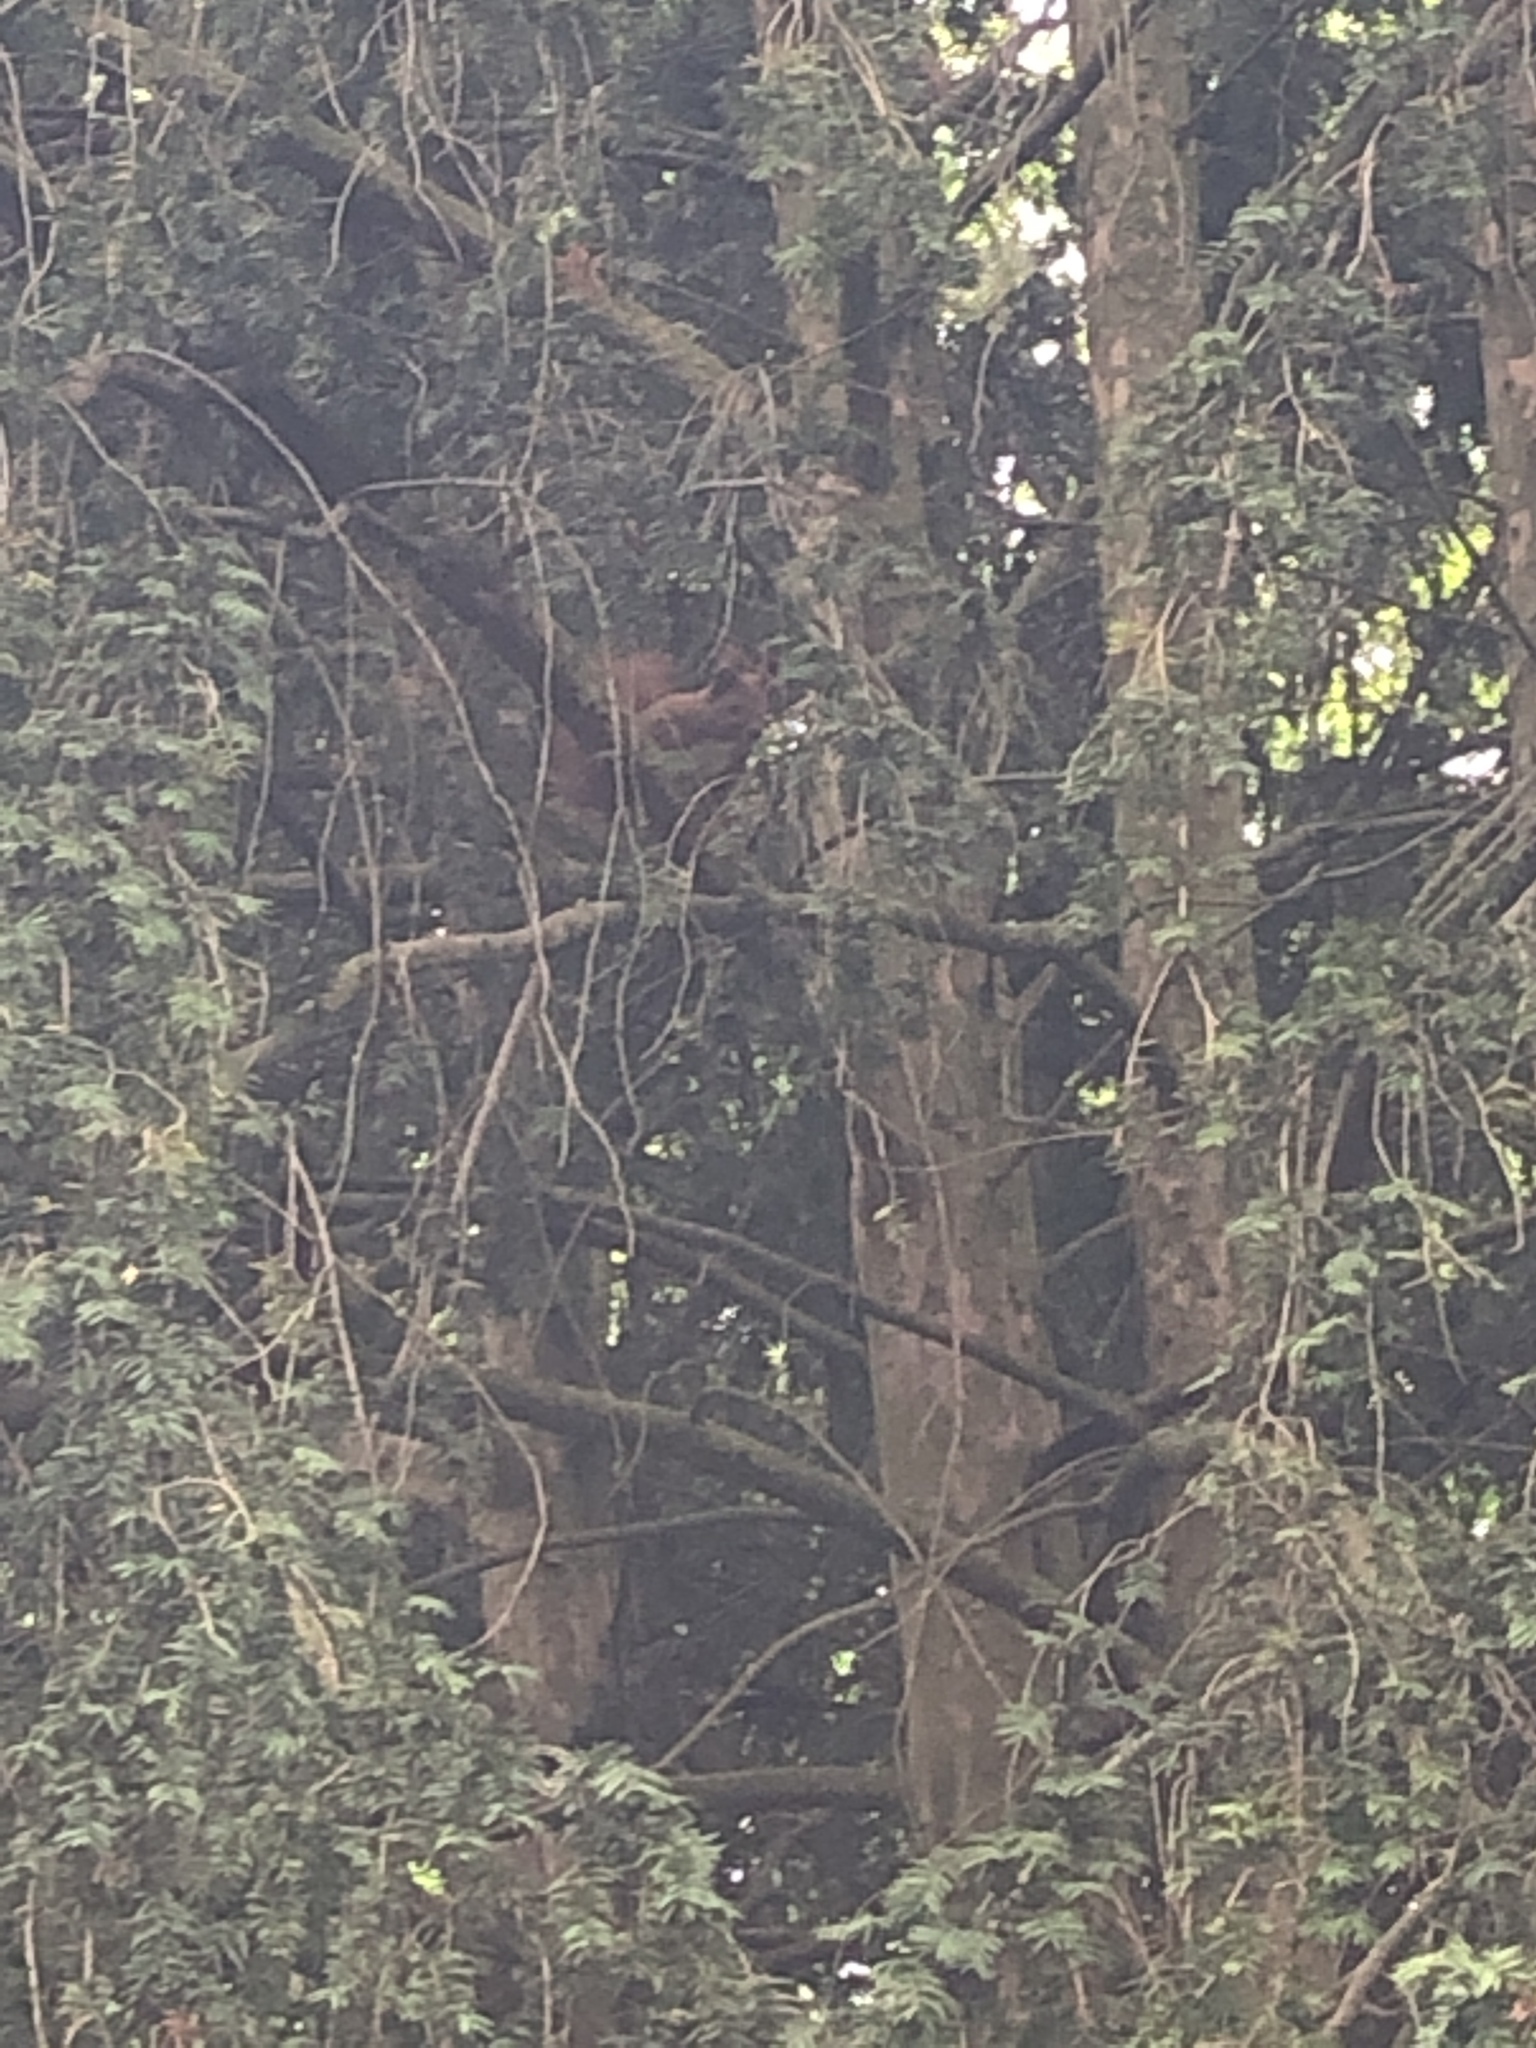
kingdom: Animalia
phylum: Chordata
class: Mammalia
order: Rodentia
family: Sciuridae
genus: Sciurus
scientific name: Sciurus vulgaris
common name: Eurasian red squirrel
